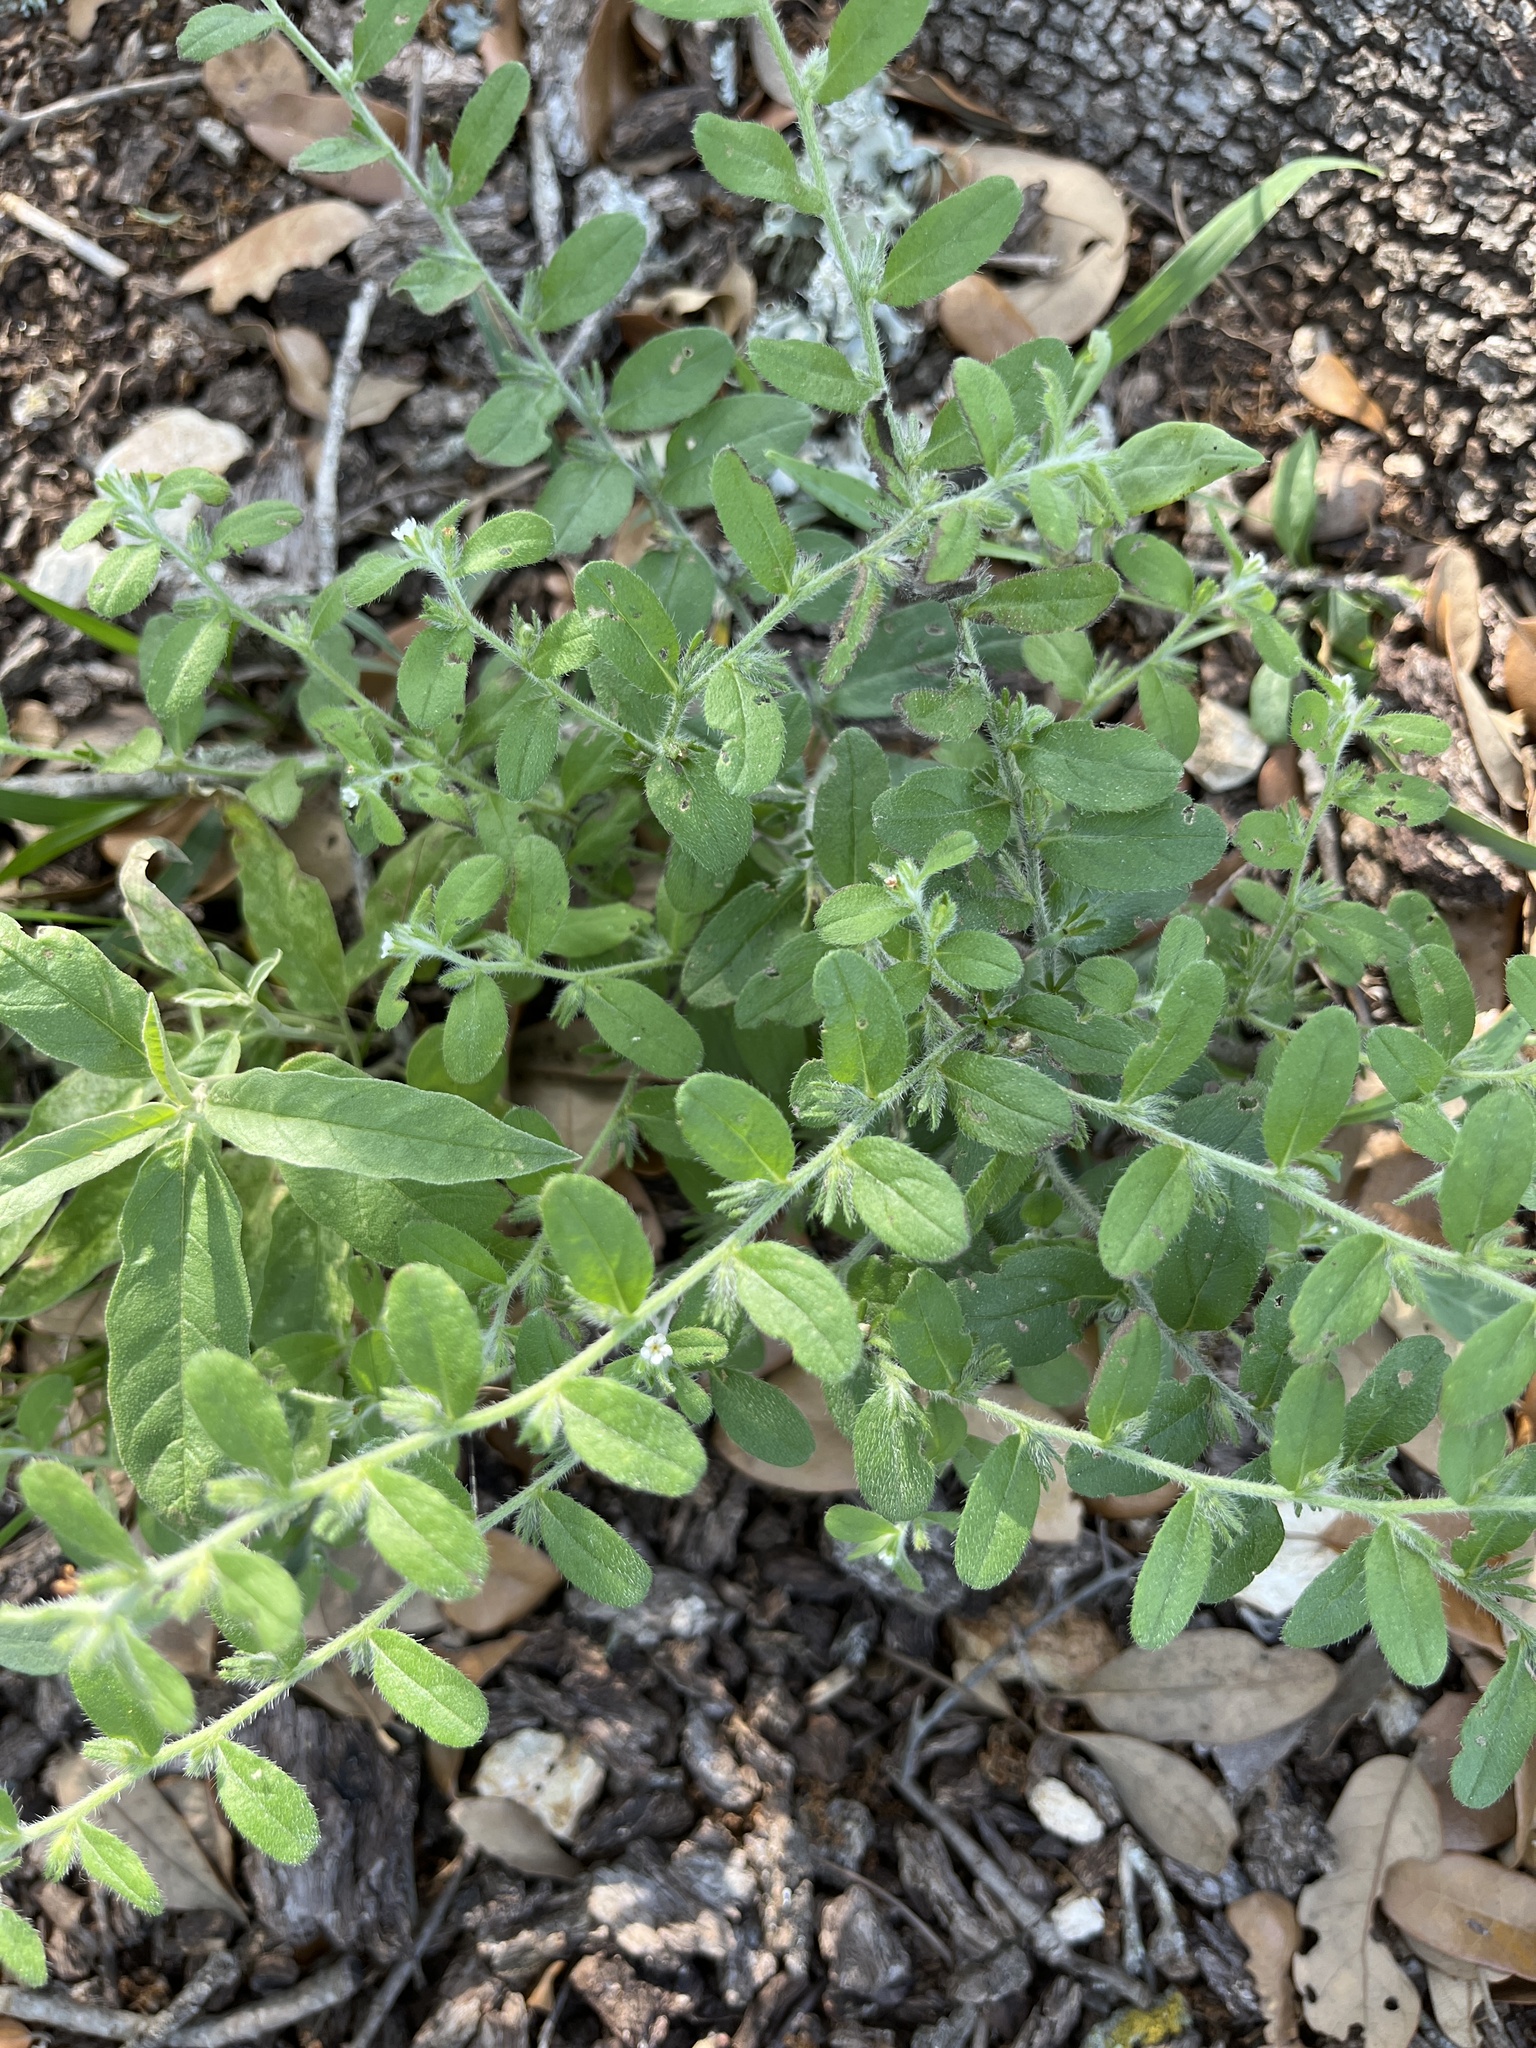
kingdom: Plantae
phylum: Tracheophyta
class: Magnoliopsida
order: Boraginales
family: Boraginaceae
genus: Lithospermum
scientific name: Lithospermum matamorense
